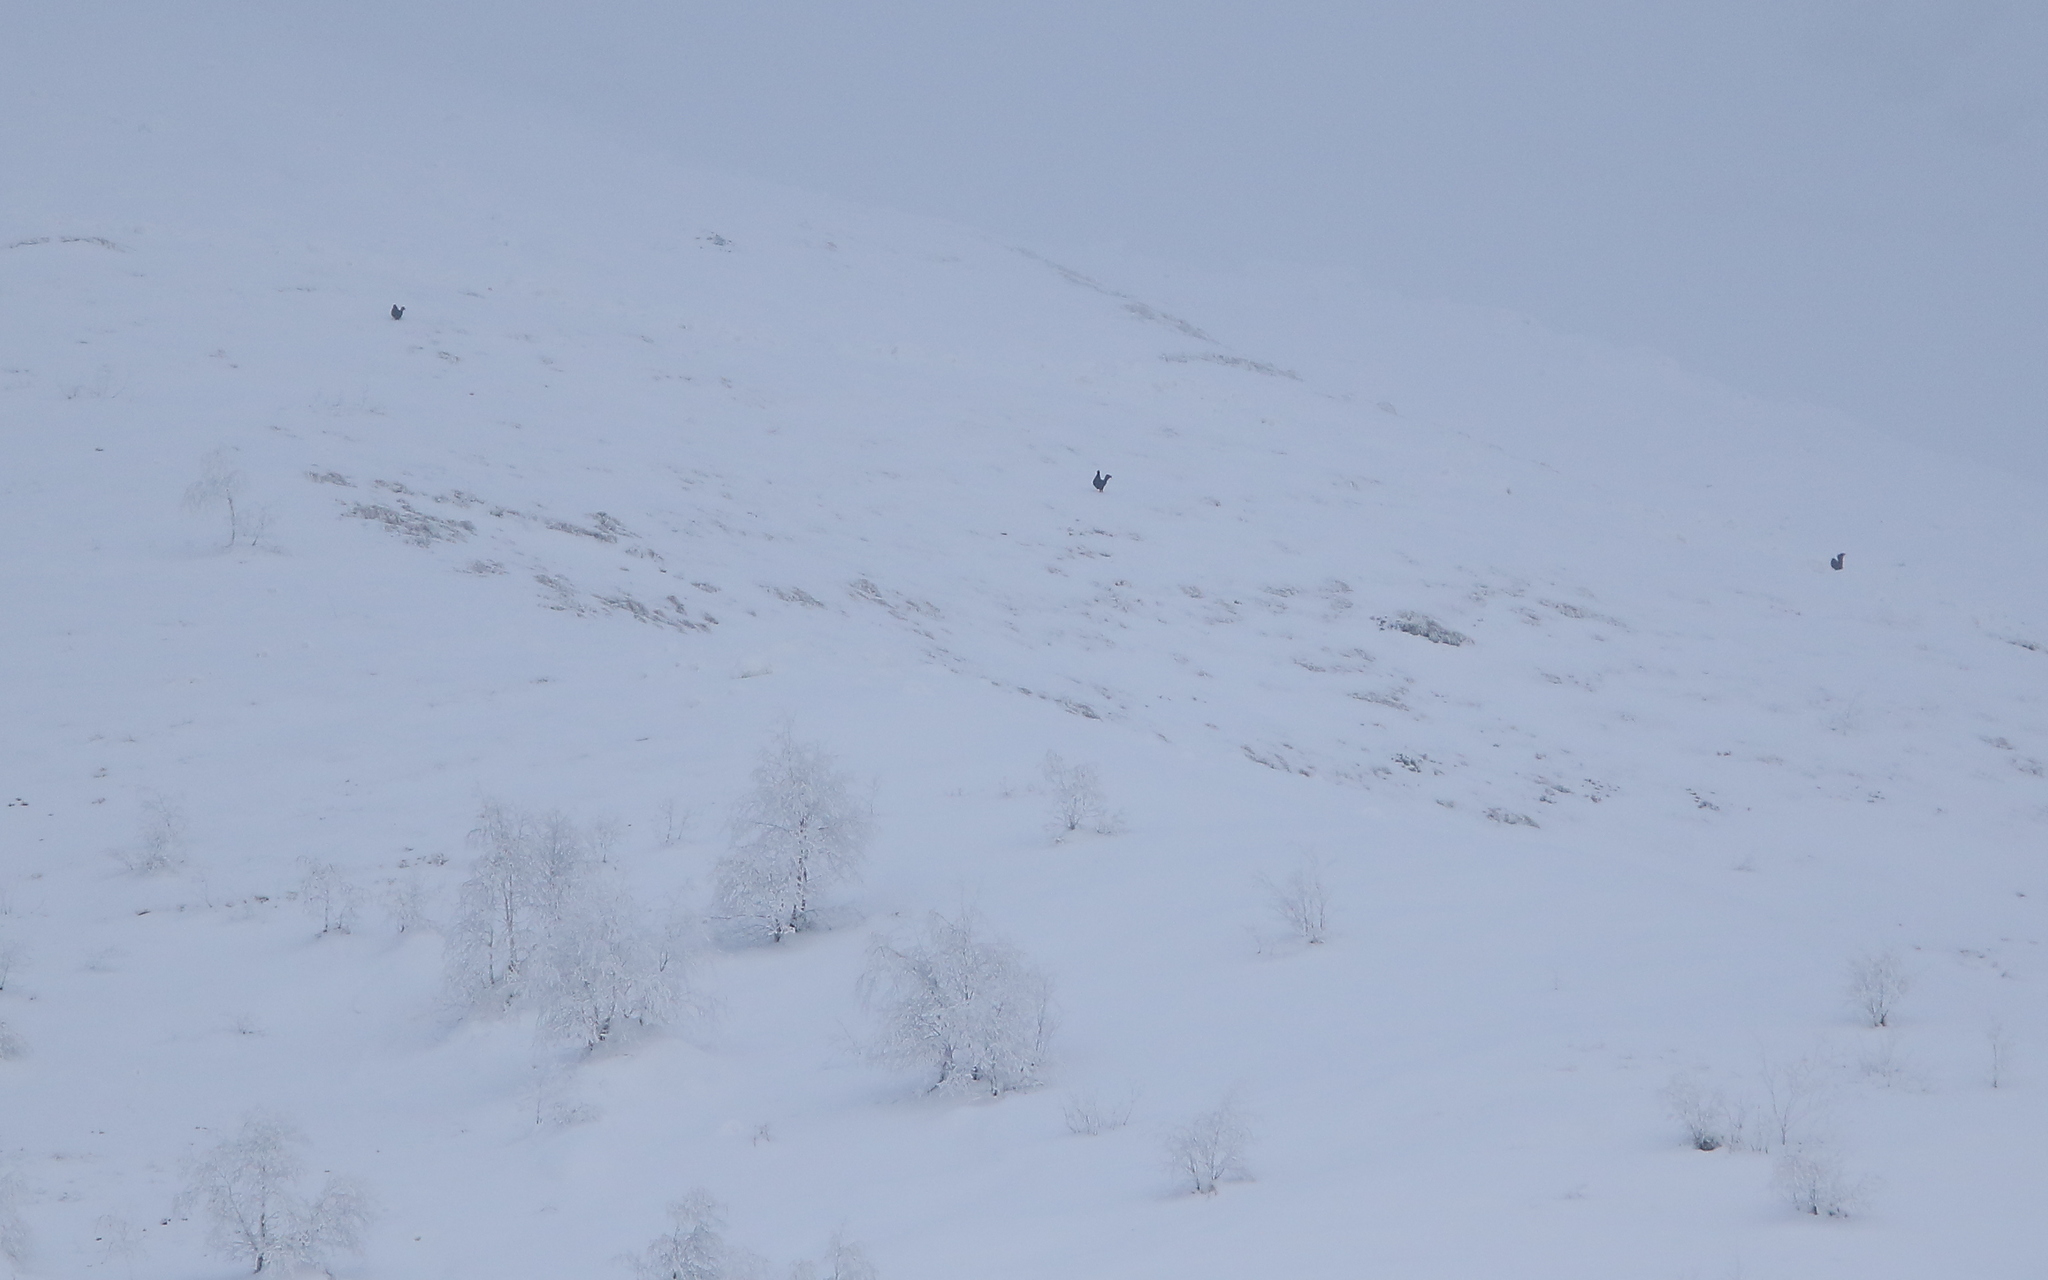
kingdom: Animalia
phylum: Chordata
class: Aves
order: Galliformes
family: Phasianidae
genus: Lyrurus
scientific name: Lyrurus mlokosiewiczi
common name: Caucasian grouse
